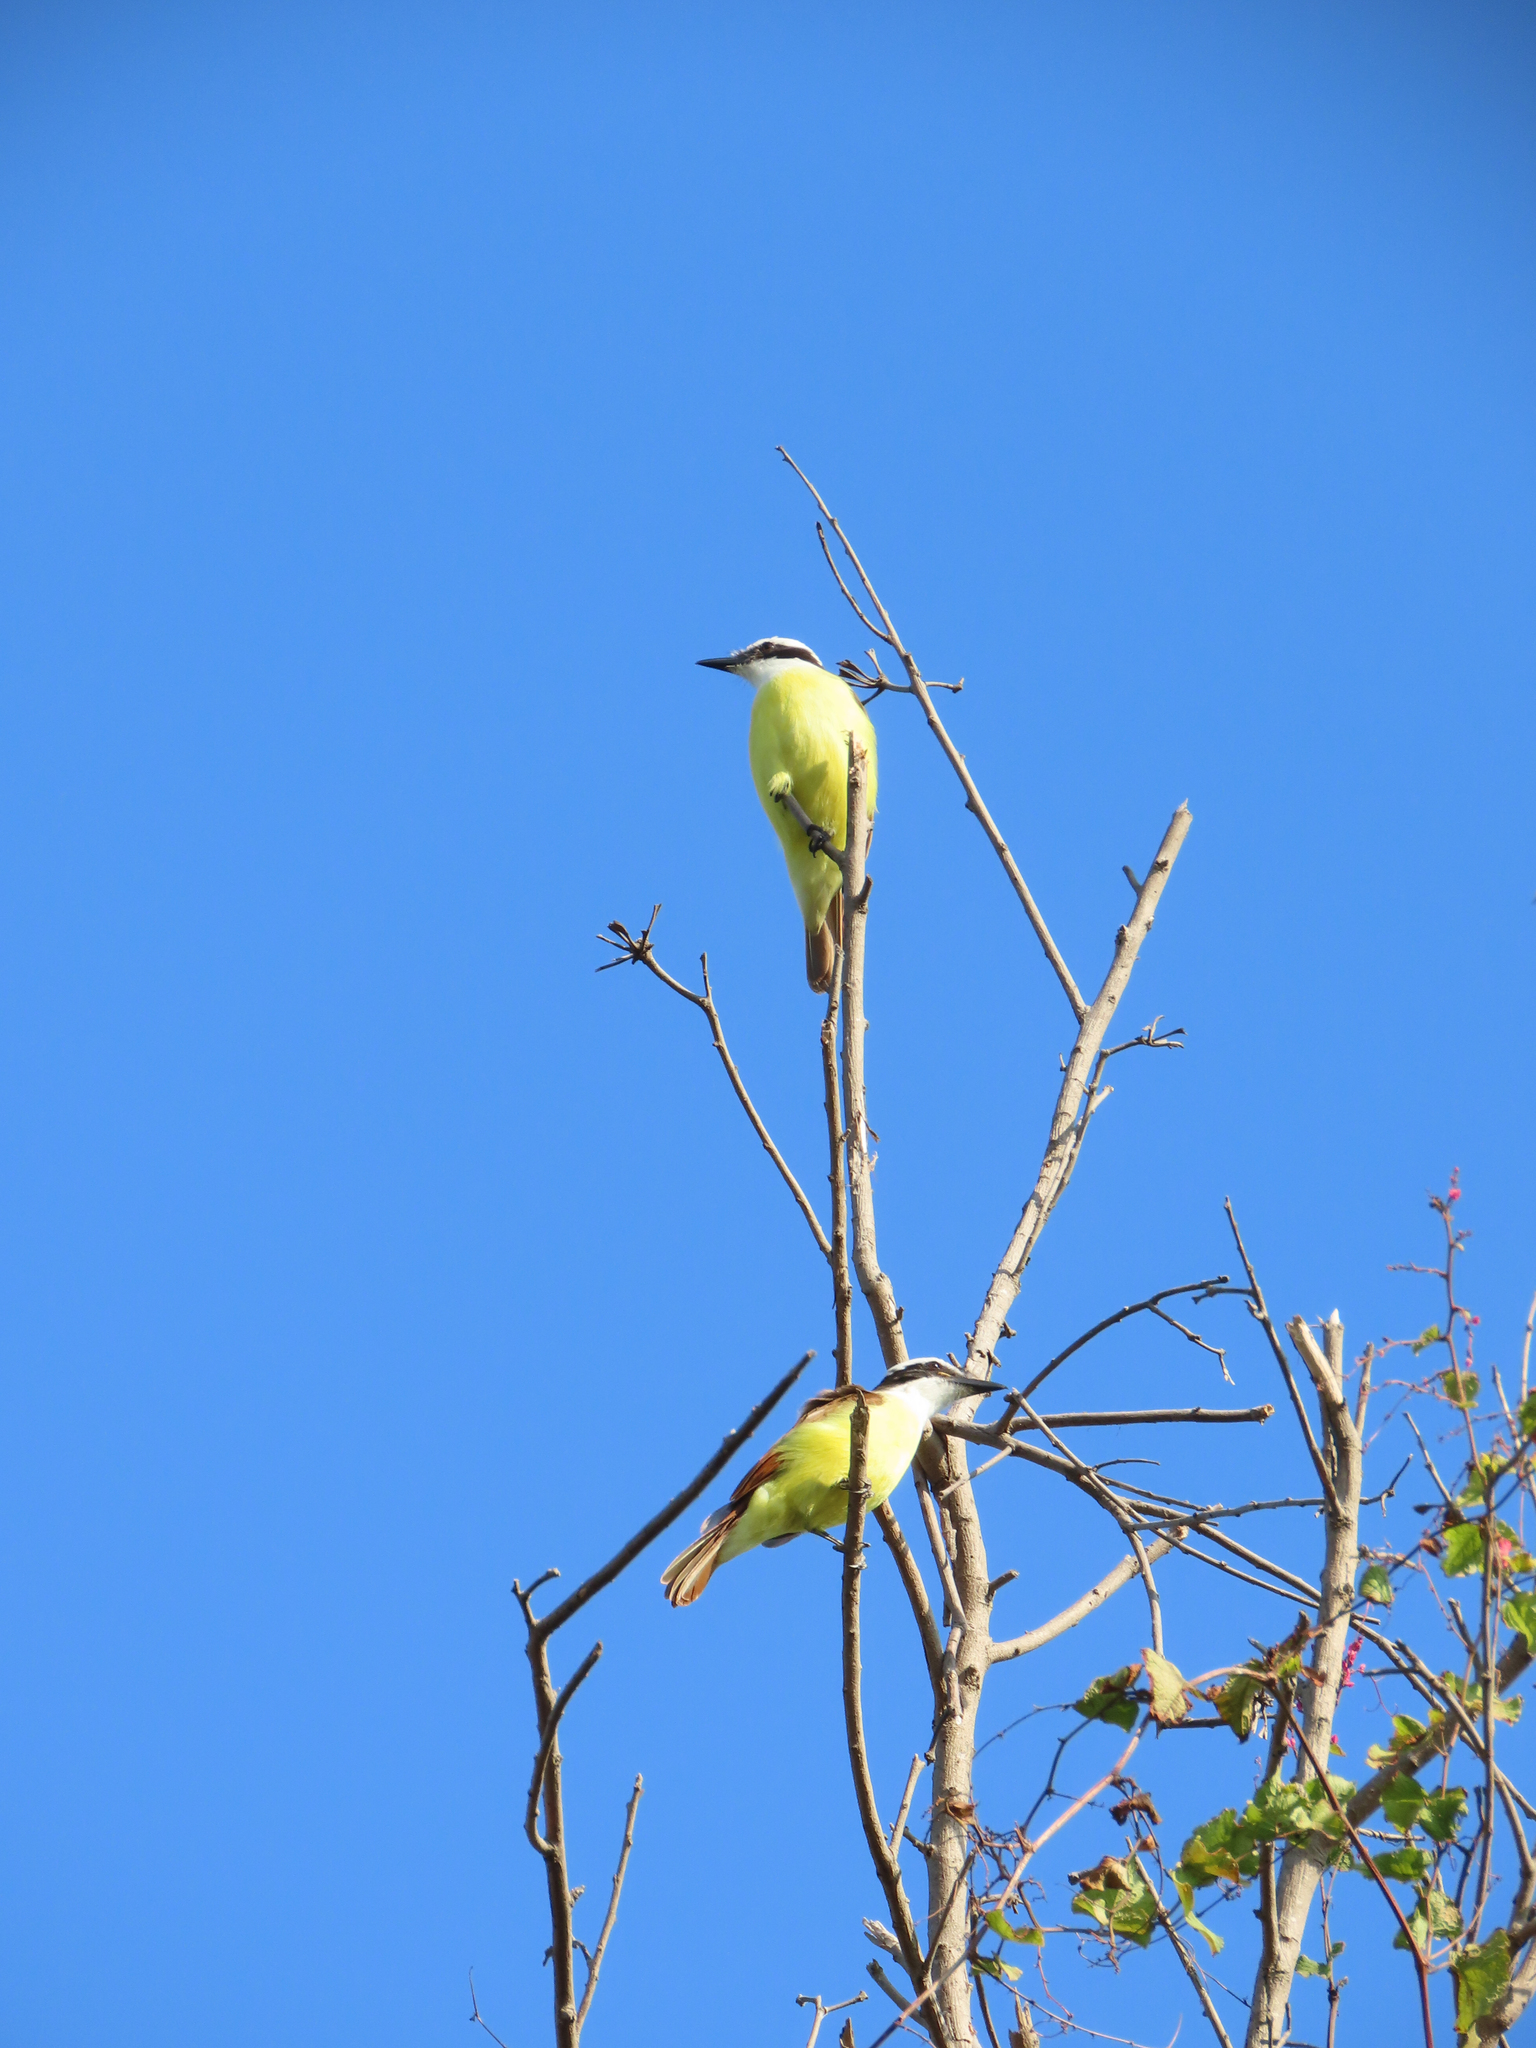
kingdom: Animalia
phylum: Chordata
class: Aves
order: Passeriformes
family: Tyrannidae
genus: Pitangus
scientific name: Pitangus sulphuratus
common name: Great kiskadee
